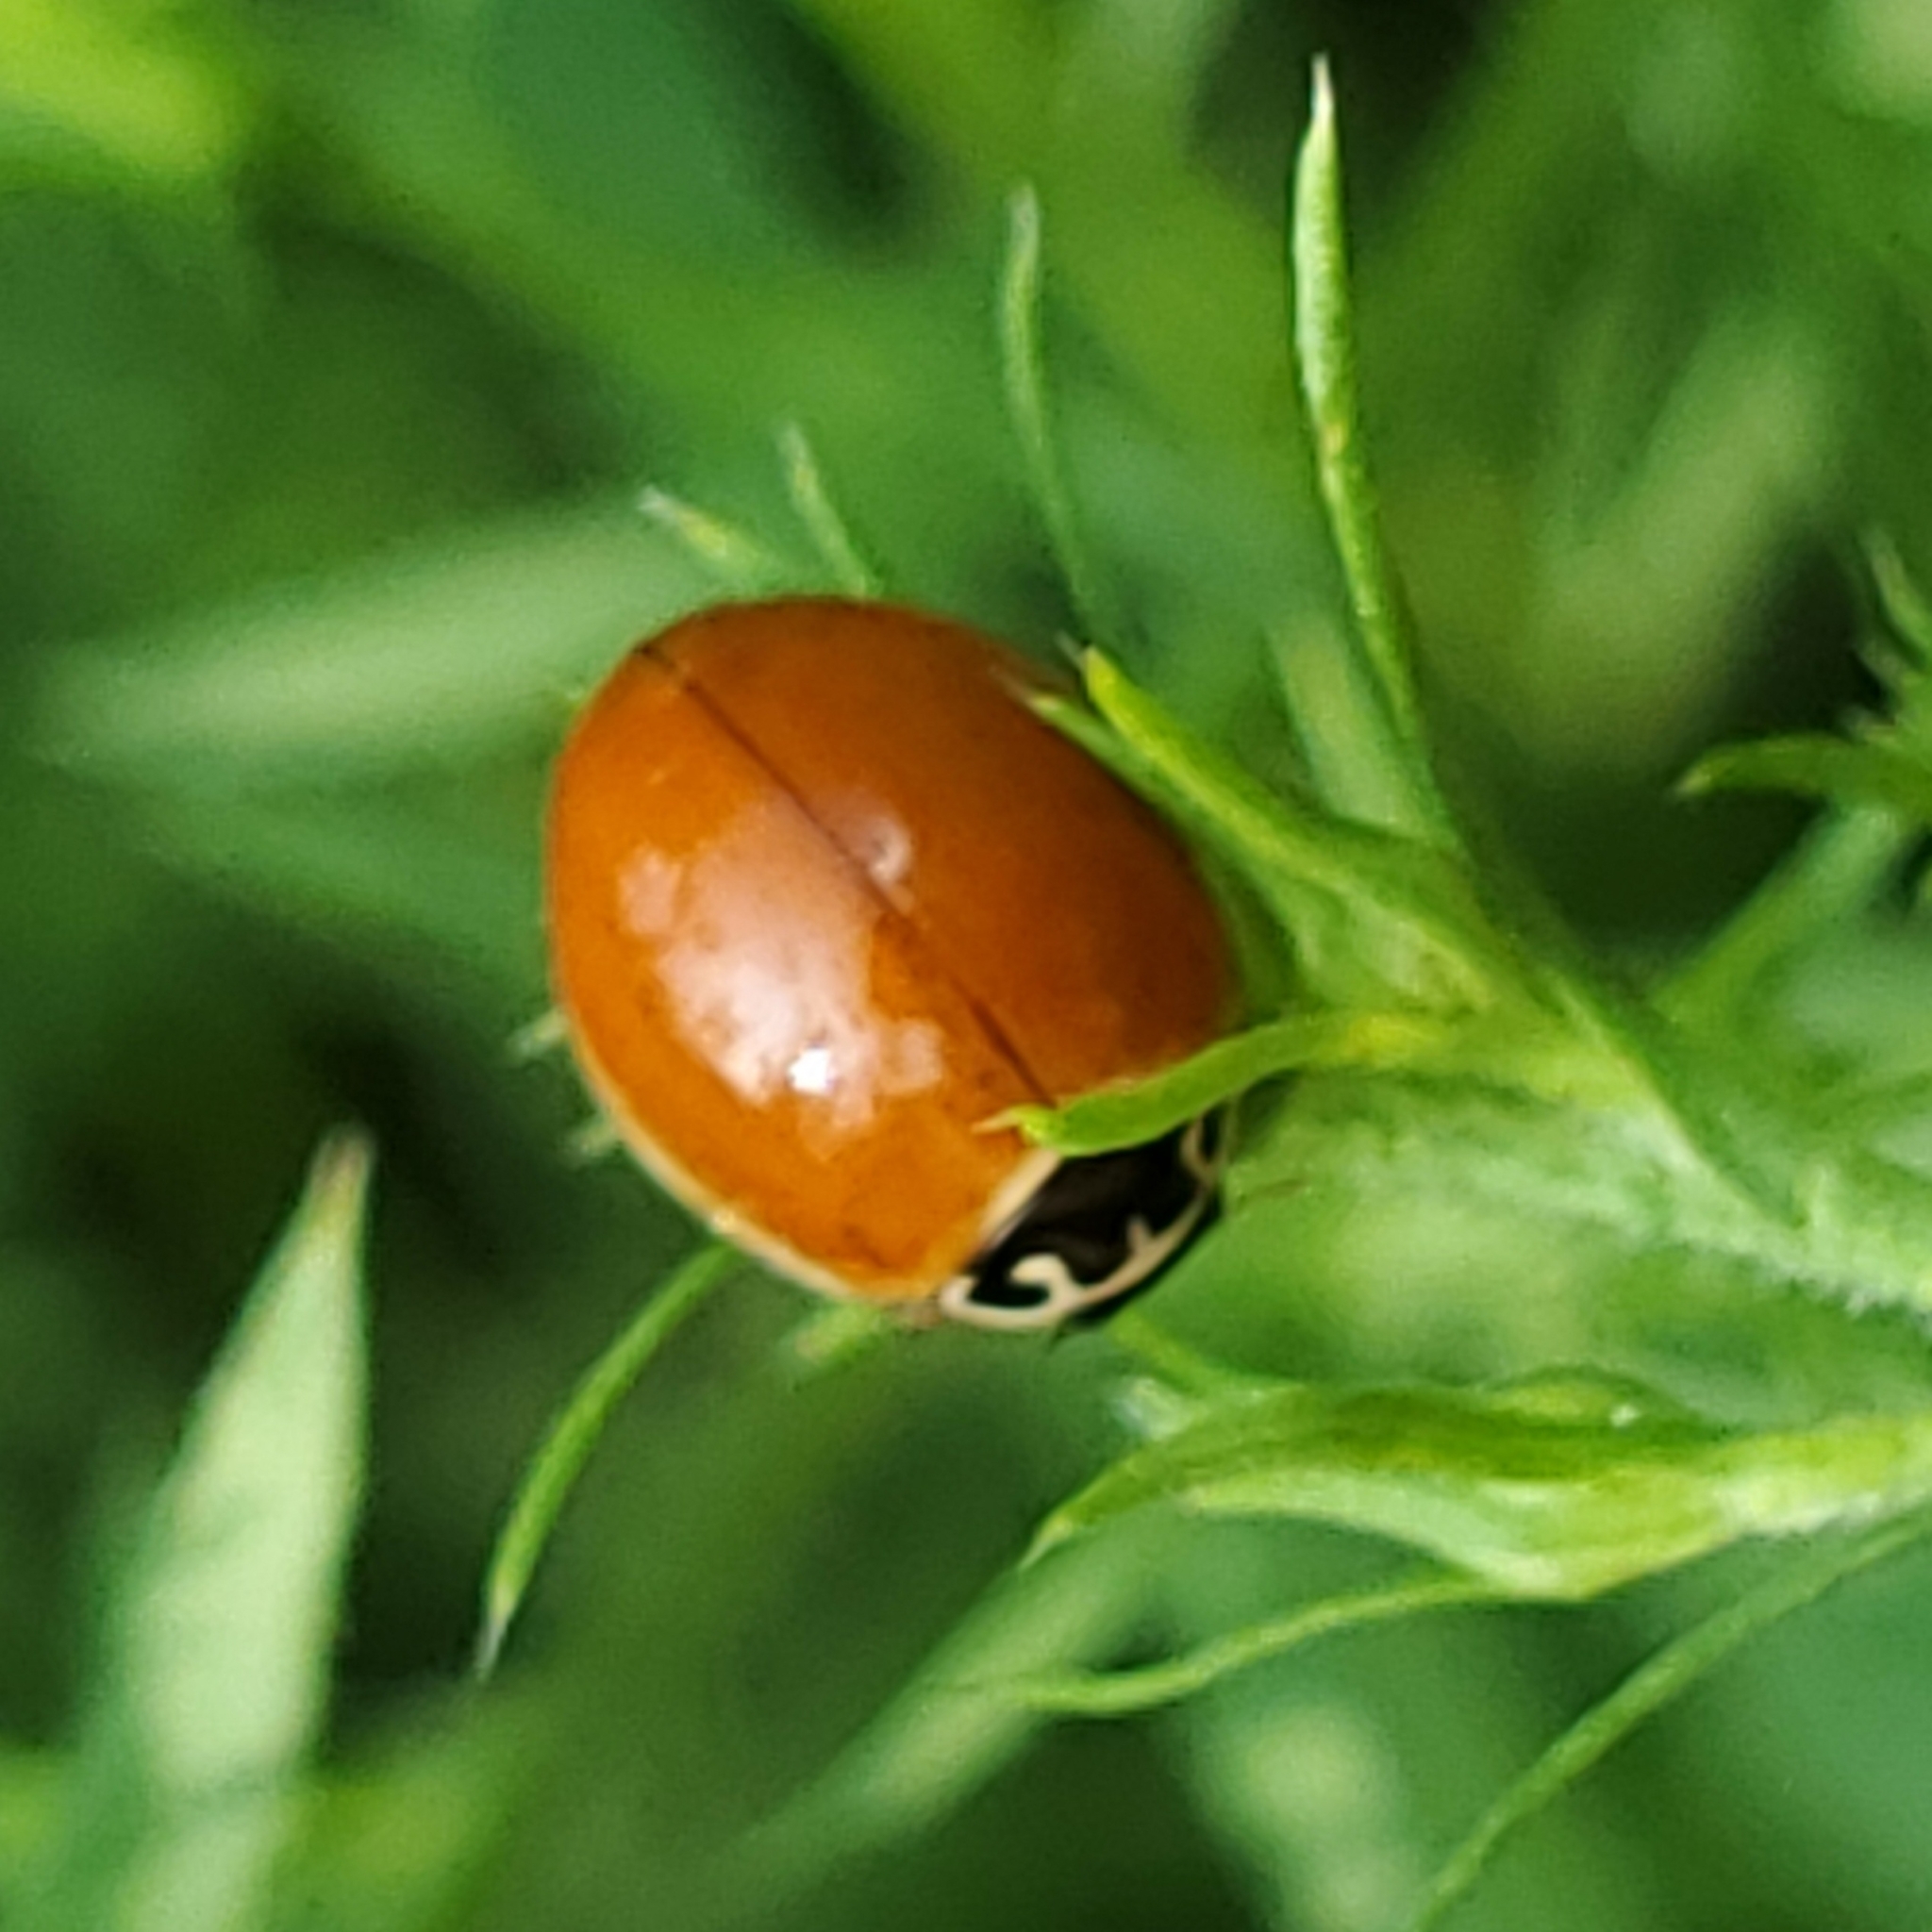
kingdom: Animalia
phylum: Arthropoda
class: Insecta
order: Coleoptera
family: Coccinellidae
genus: Cycloneda
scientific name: Cycloneda munda
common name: Polished lady beetle
